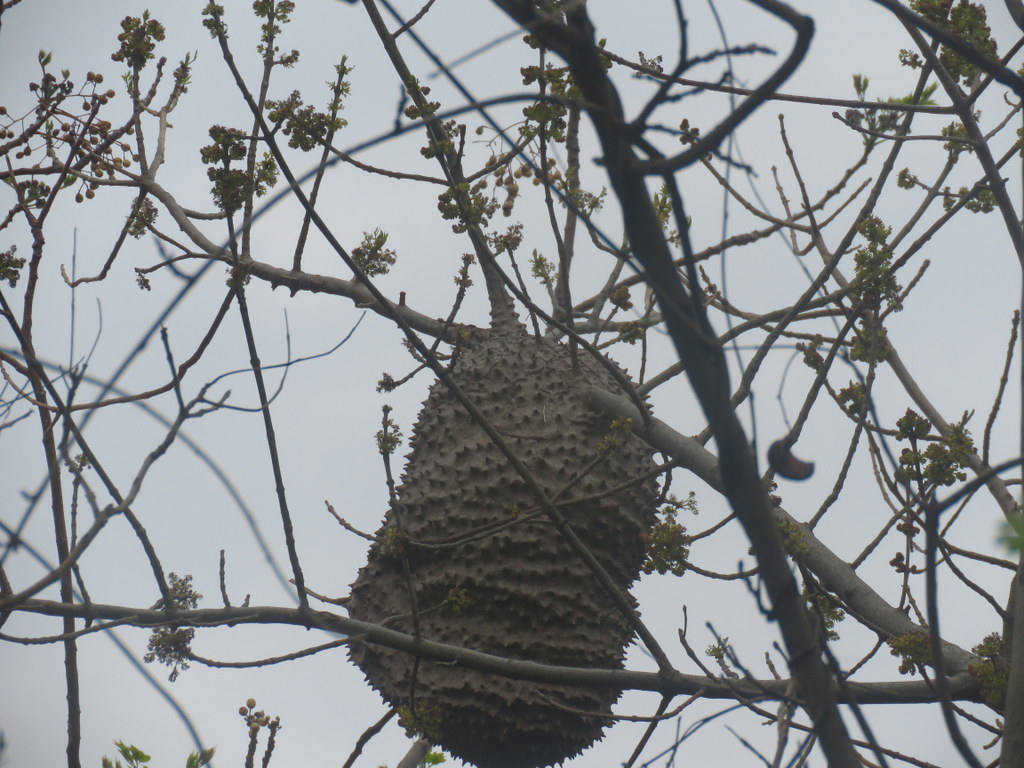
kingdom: Animalia
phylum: Arthropoda
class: Insecta
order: Hymenoptera
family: Eumenidae
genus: Polybia
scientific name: Polybia scutellaris
